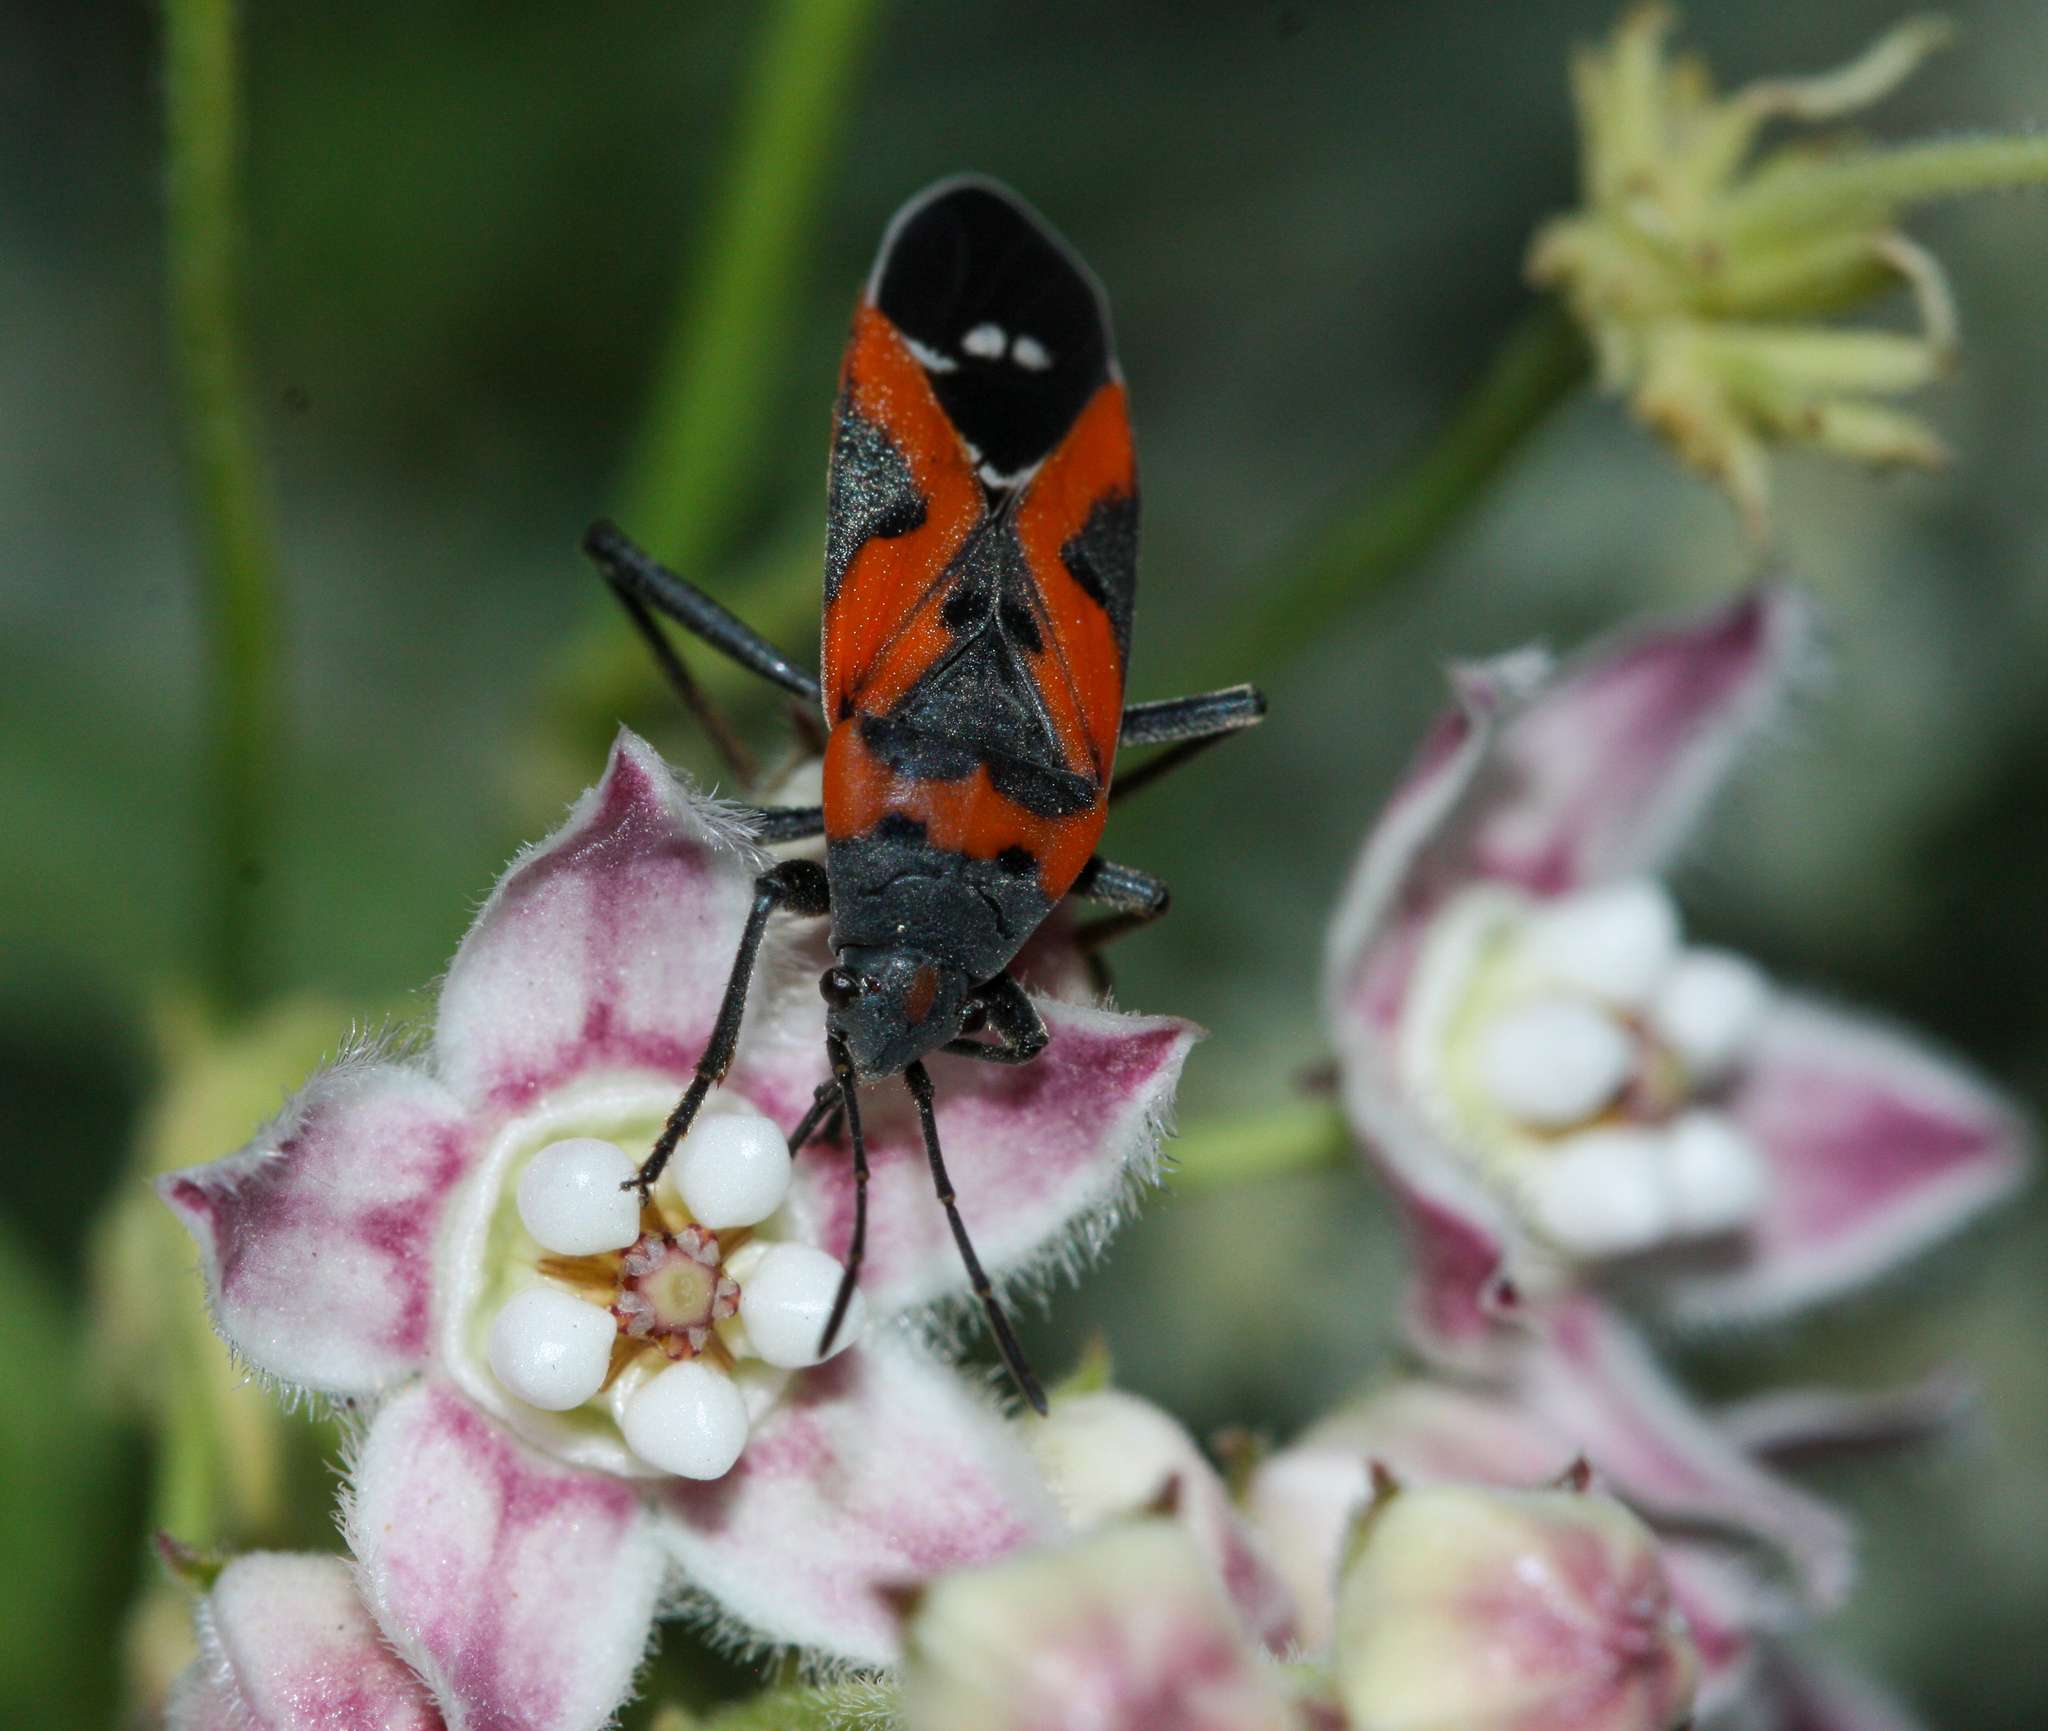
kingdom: Animalia
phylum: Arthropoda
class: Insecta
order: Hemiptera
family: Lygaeidae
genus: Lygaeus
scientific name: Lygaeus reclivatus
